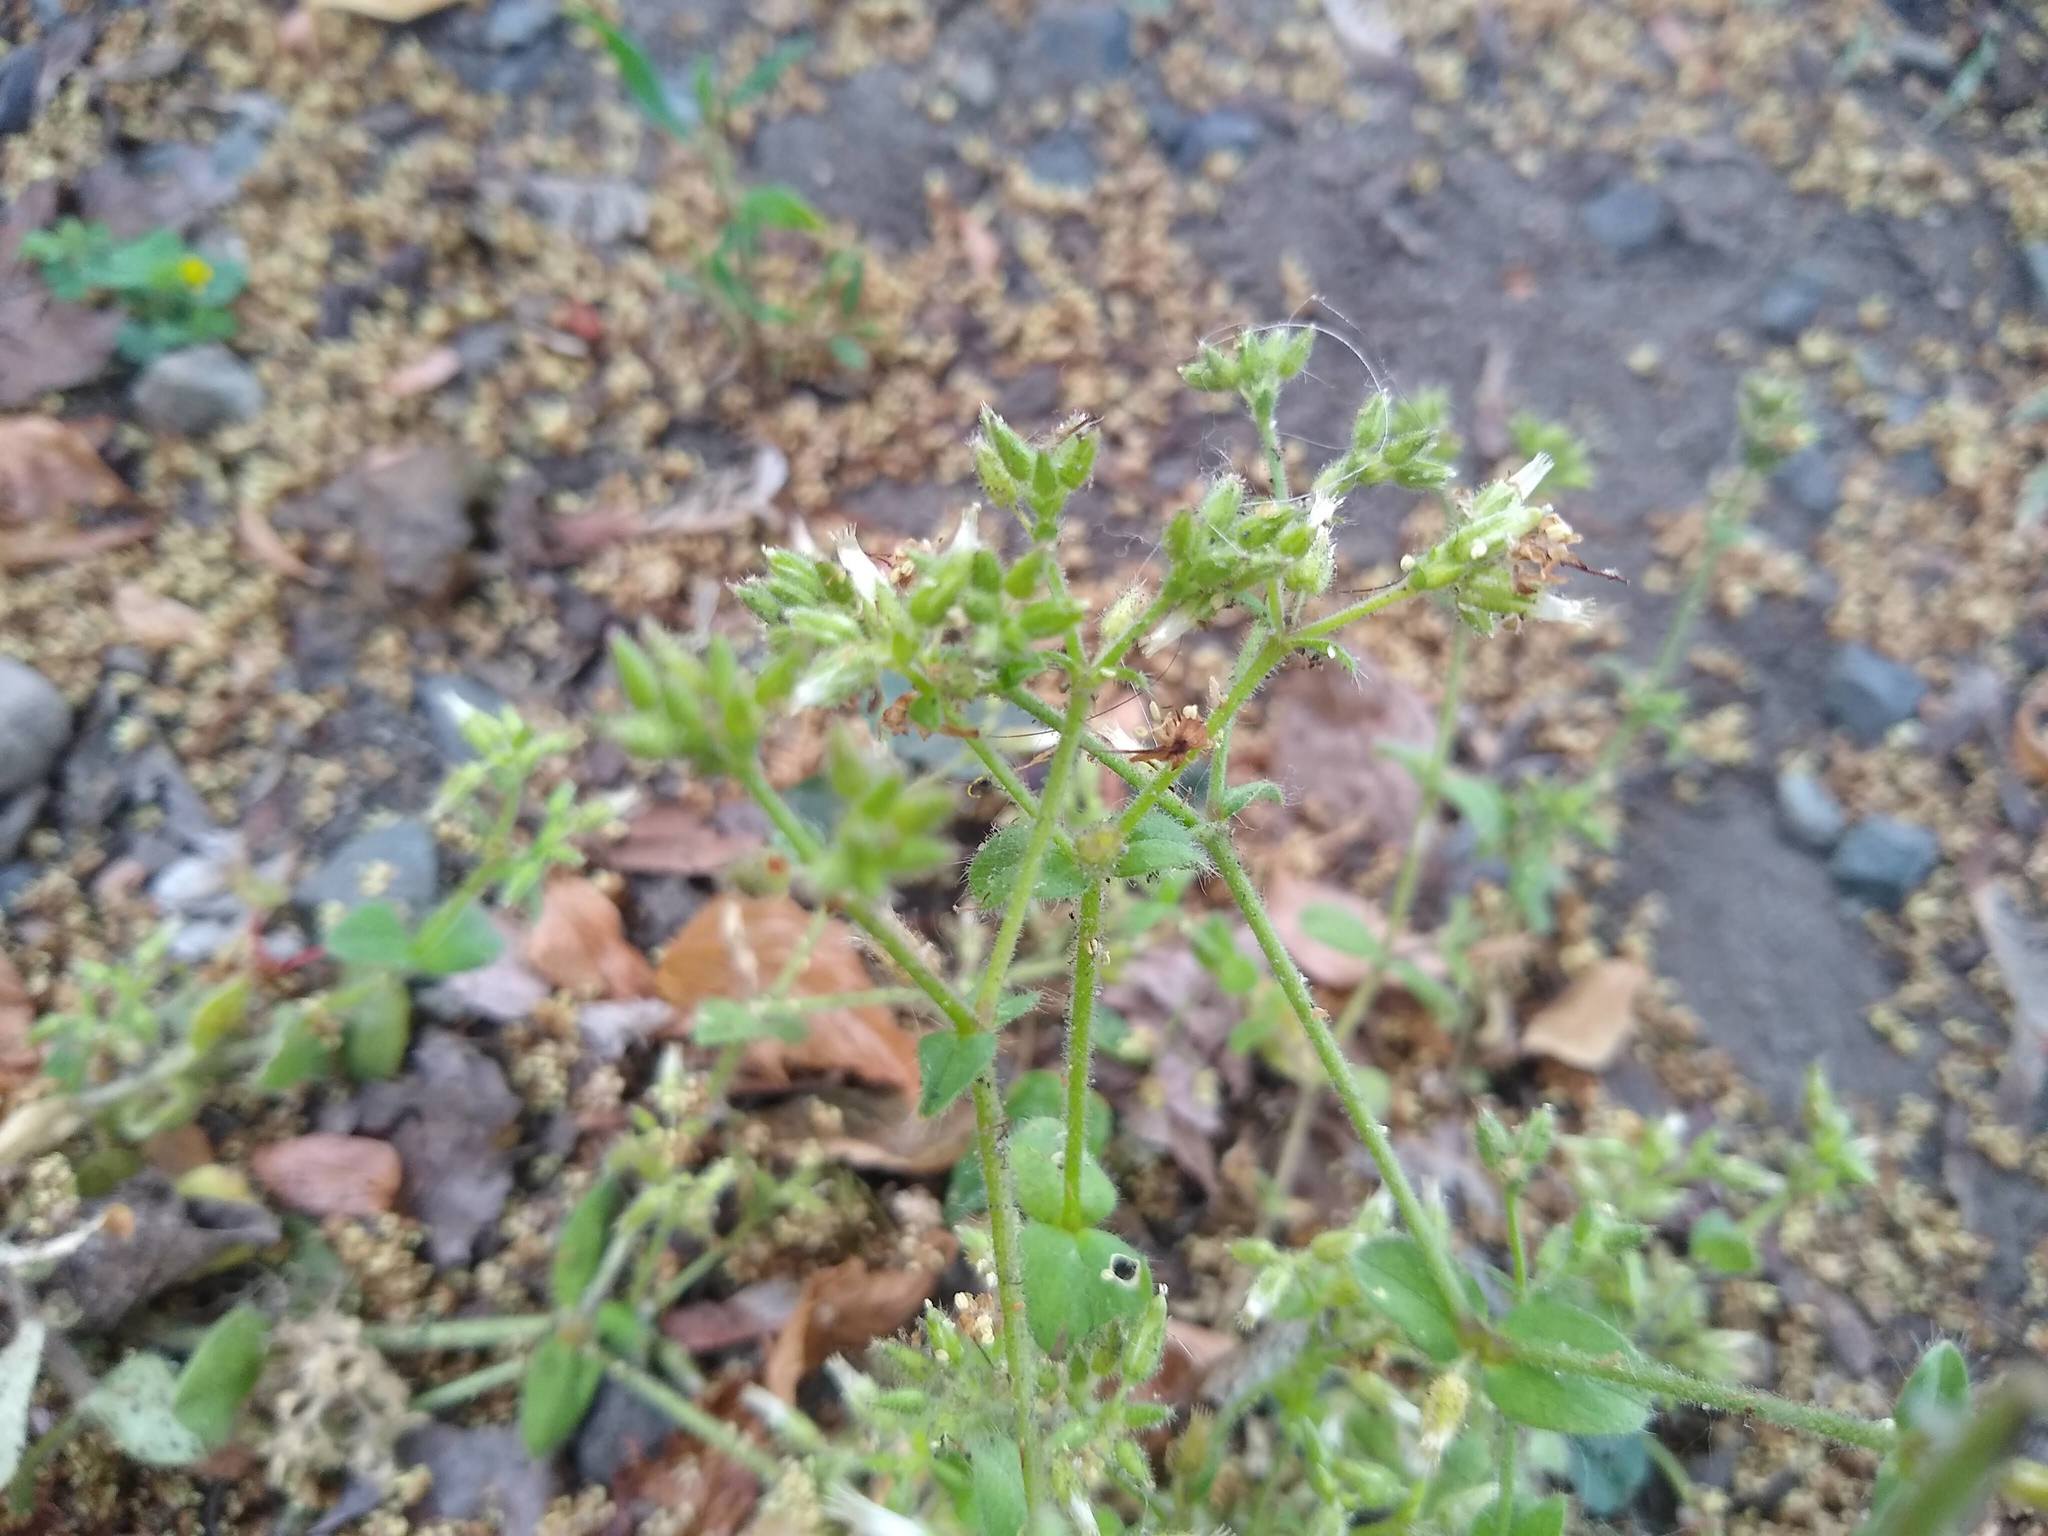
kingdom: Plantae
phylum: Tracheophyta
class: Magnoliopsida
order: Caryophyllales
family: Caryophyllaceae
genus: Cerastium
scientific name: Cerastium glomeratum
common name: Sticky chickweed
